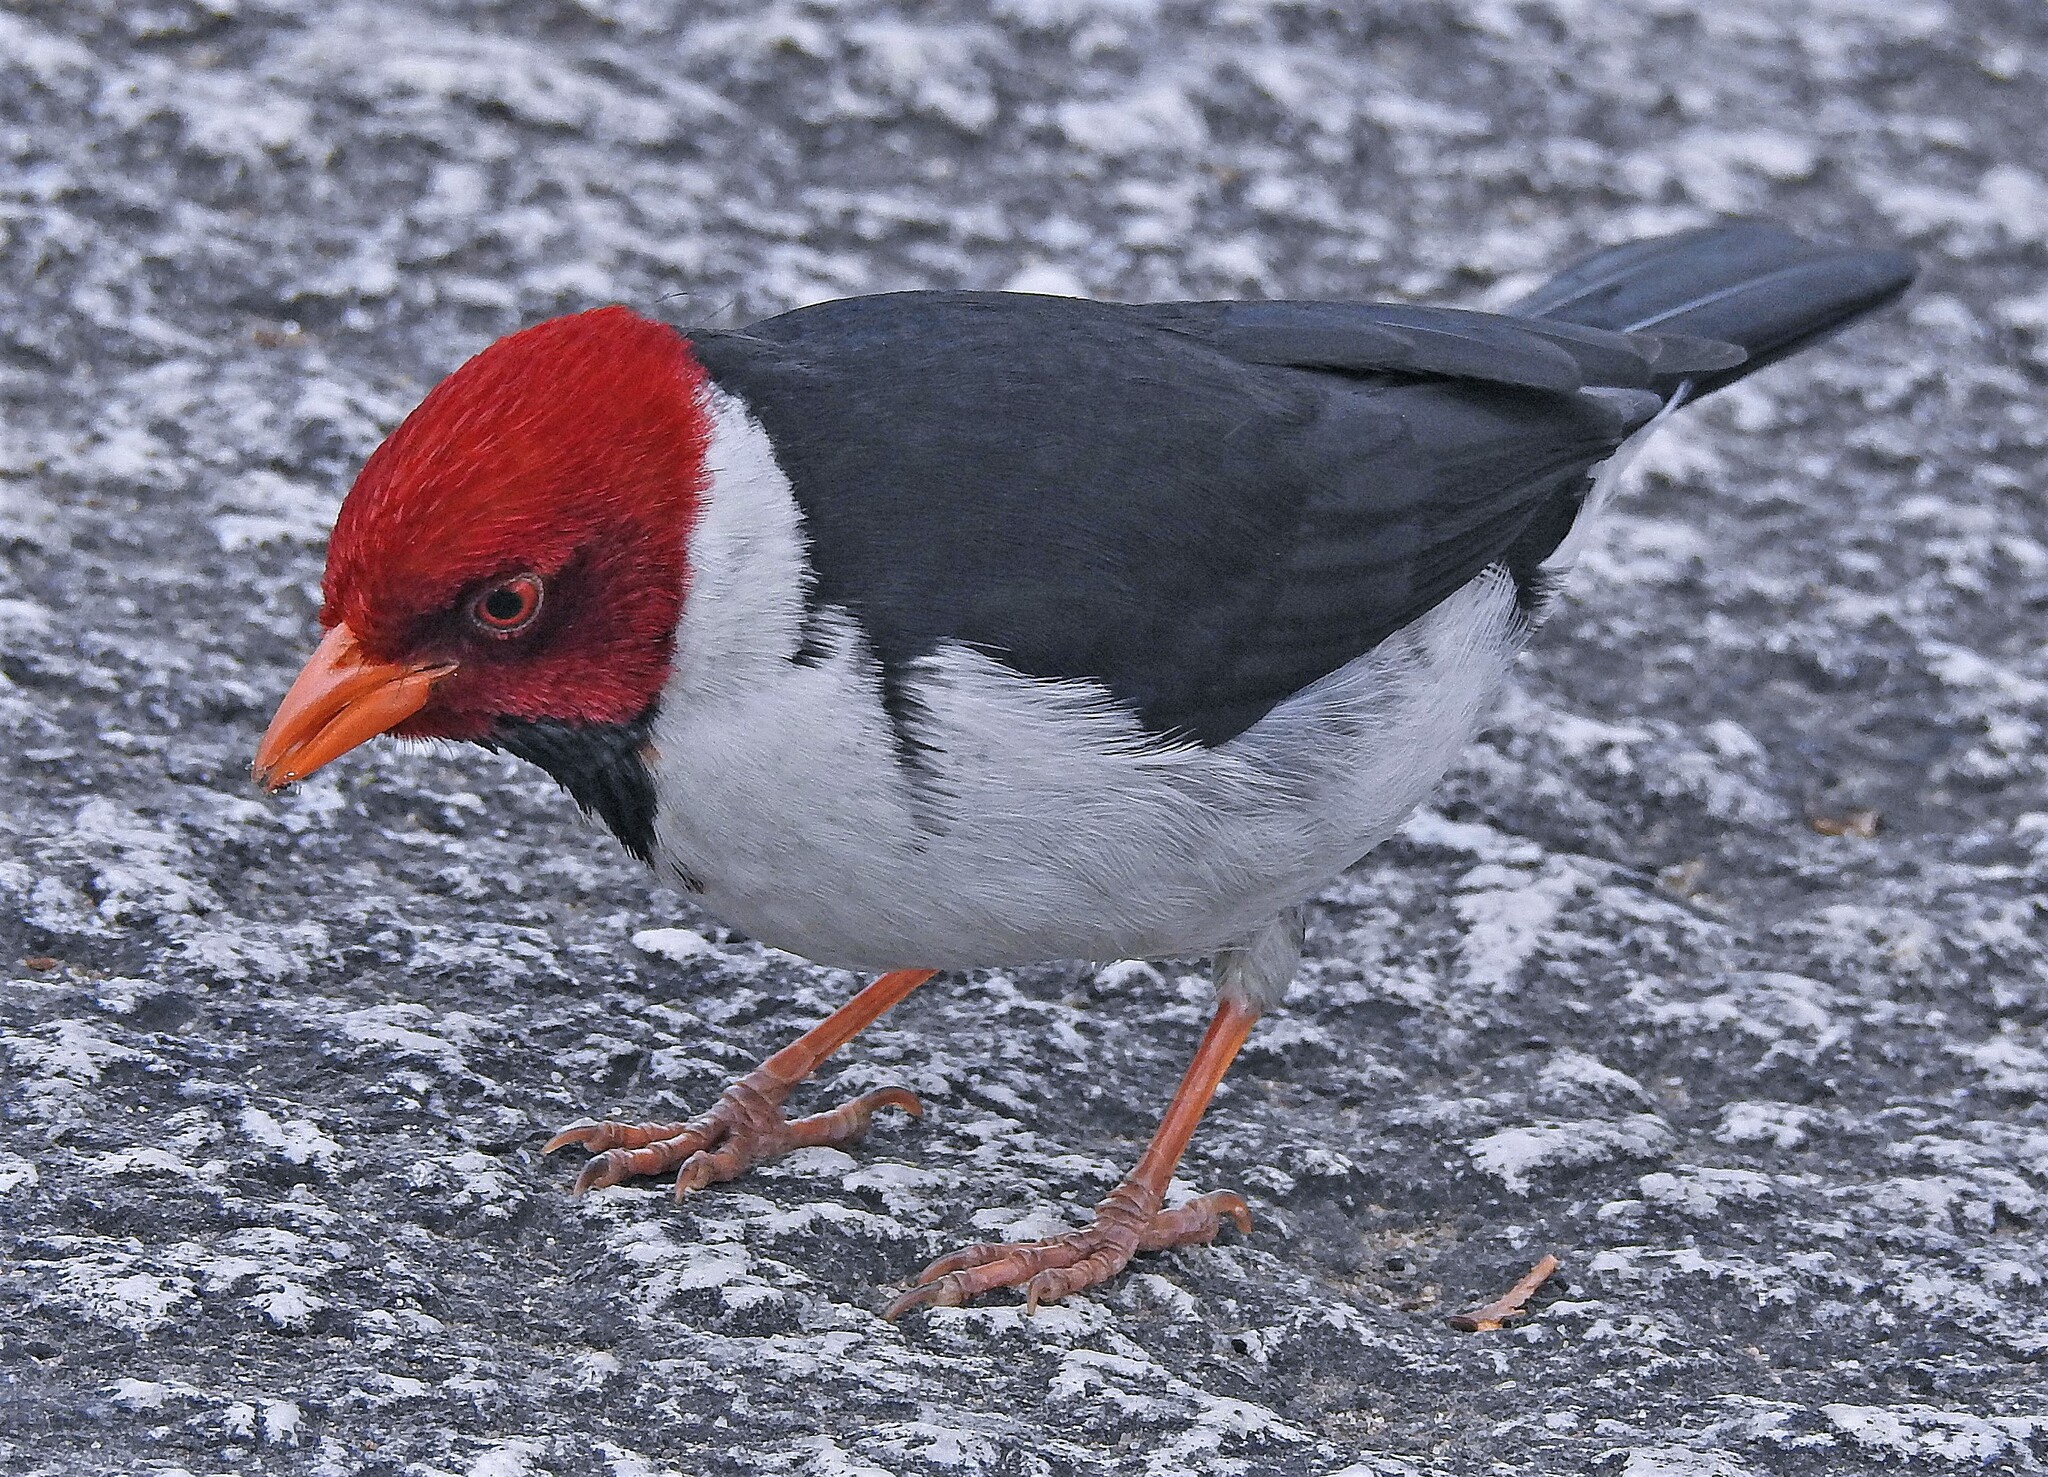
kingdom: Animalia
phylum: Chordata
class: Aves
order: Passeriformes
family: Thraupidae
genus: Paroaria
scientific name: Paroaria capitata
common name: Yellow-billed cardinal
